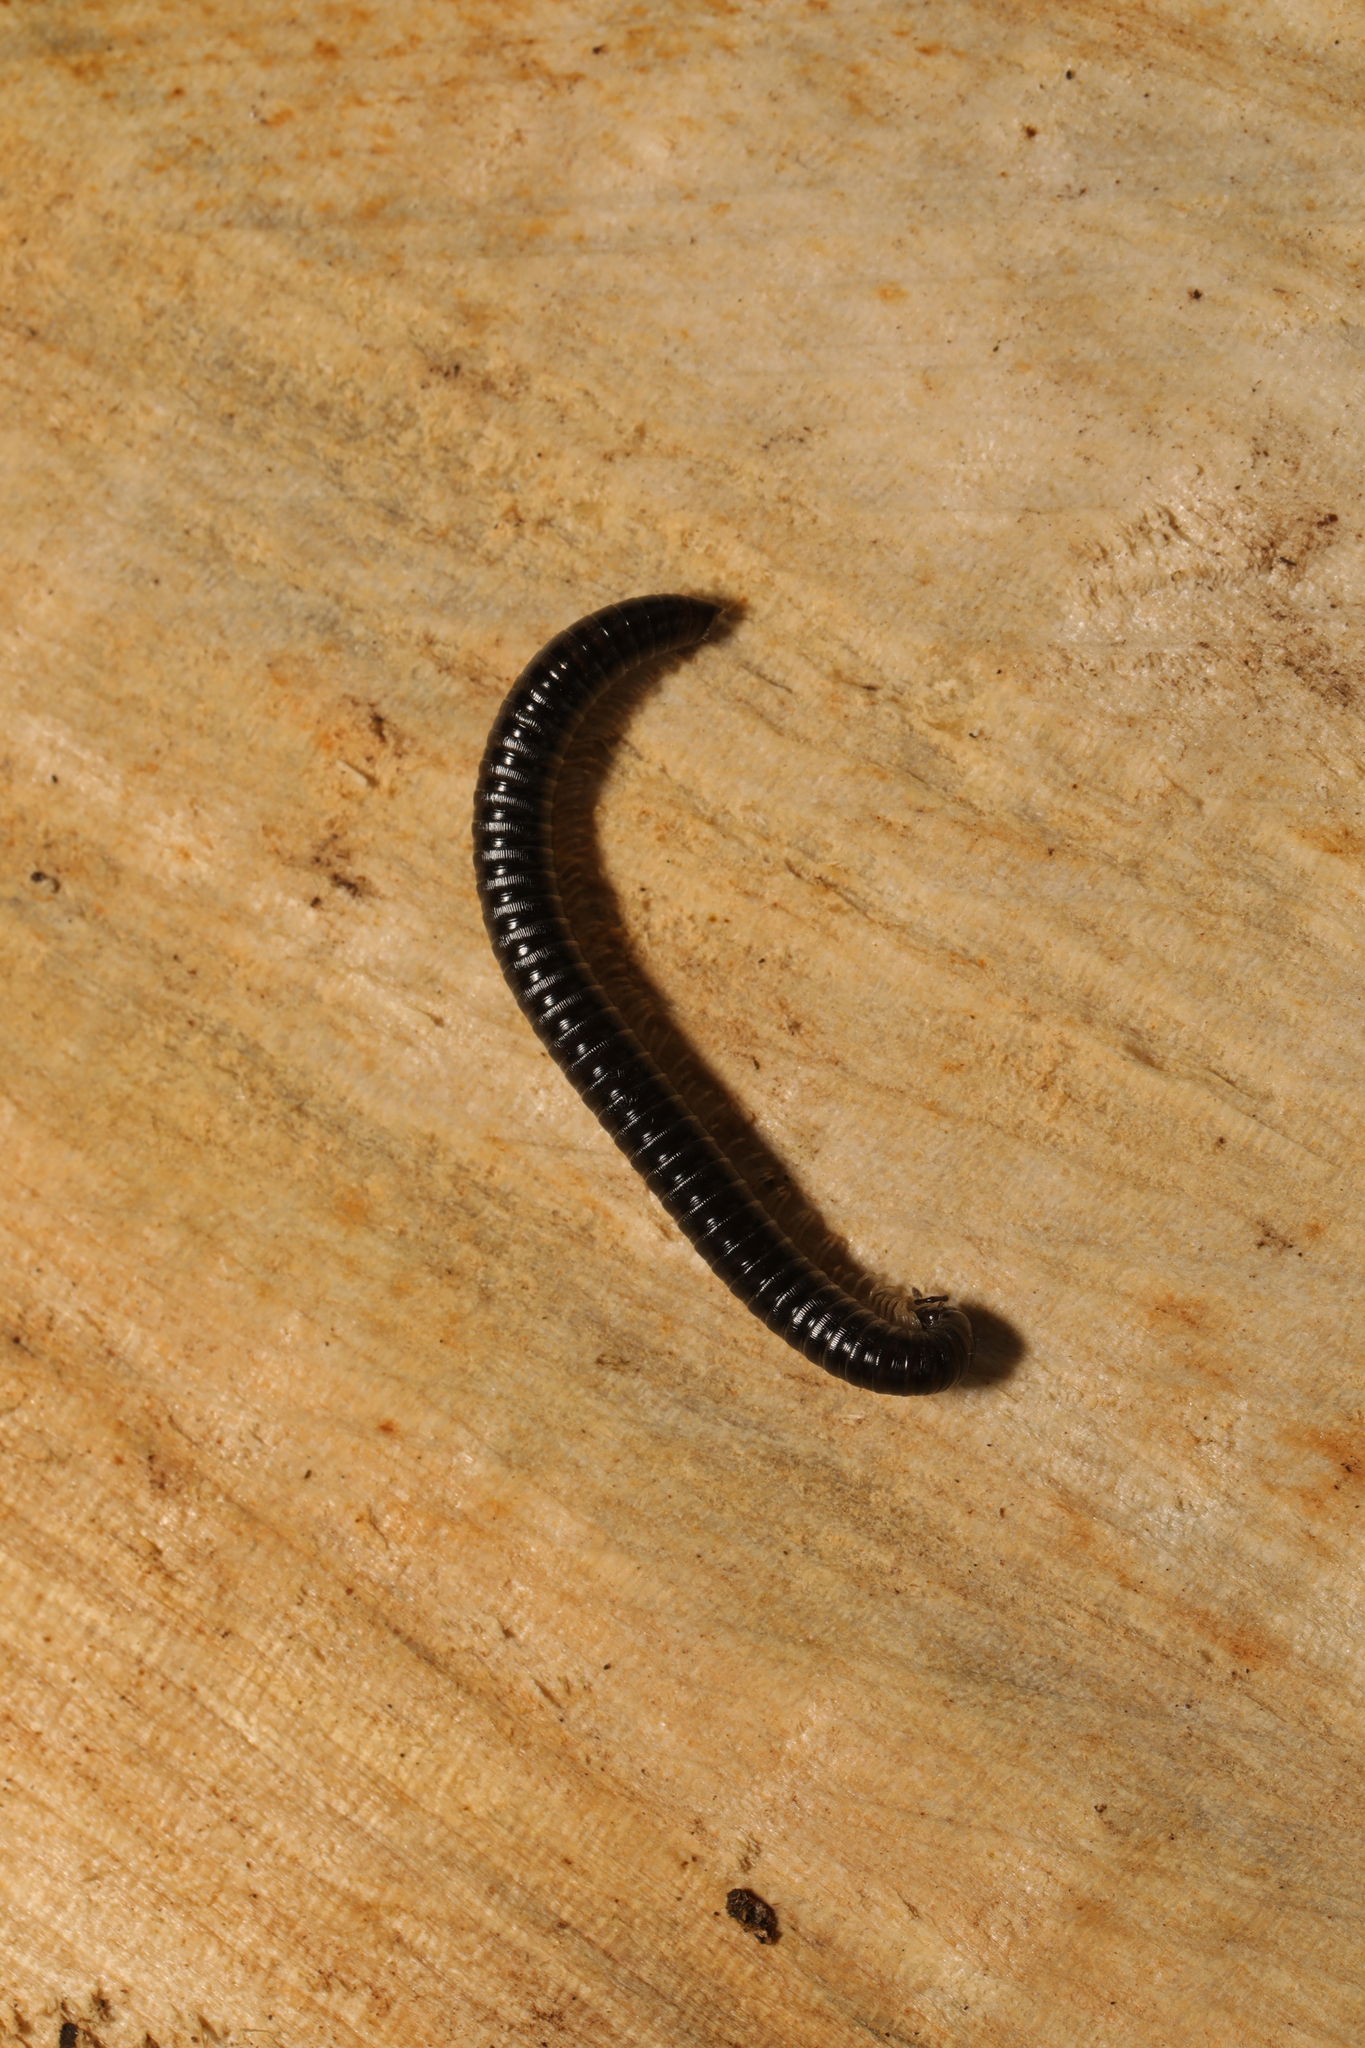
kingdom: Animalia
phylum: Arthropoda
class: Diplopoda
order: Julida
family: Julidae
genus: Tachypodoiulus
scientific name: Tachypodoiulus niger
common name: White-legged snake millipede
